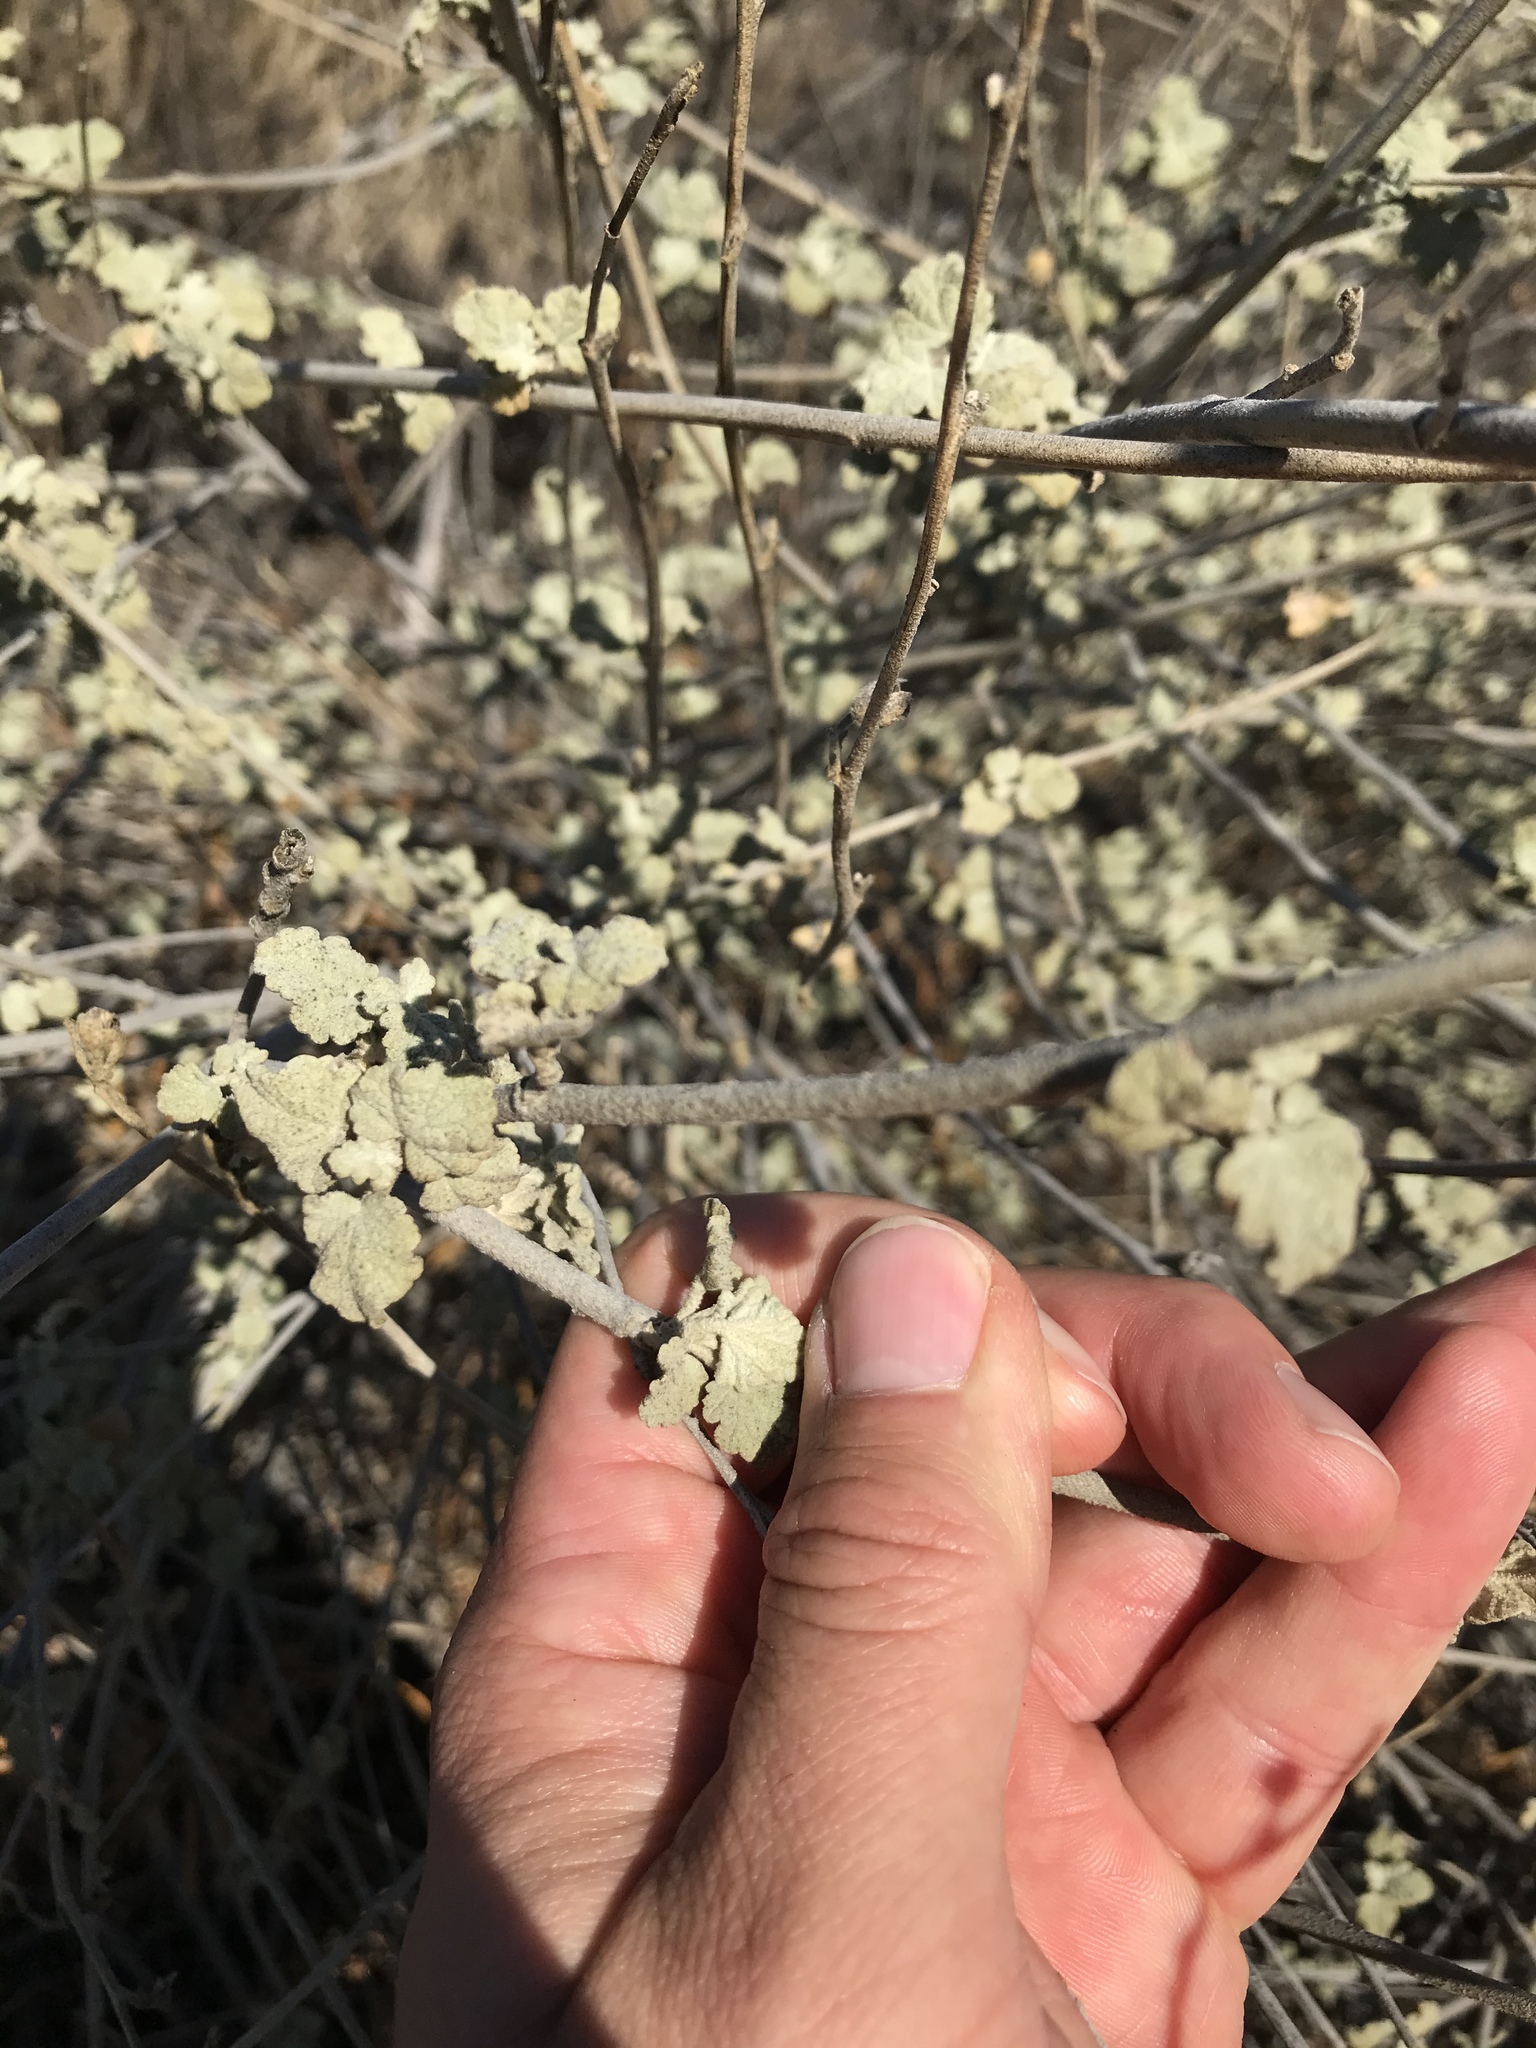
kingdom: Plantae
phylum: Tracheophyta
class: Magnoliopsida
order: Malvales
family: Malvaceae
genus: Malacothamnus
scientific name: Malacothamnus fasciculatus
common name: Sant cruz island bush-mallow
